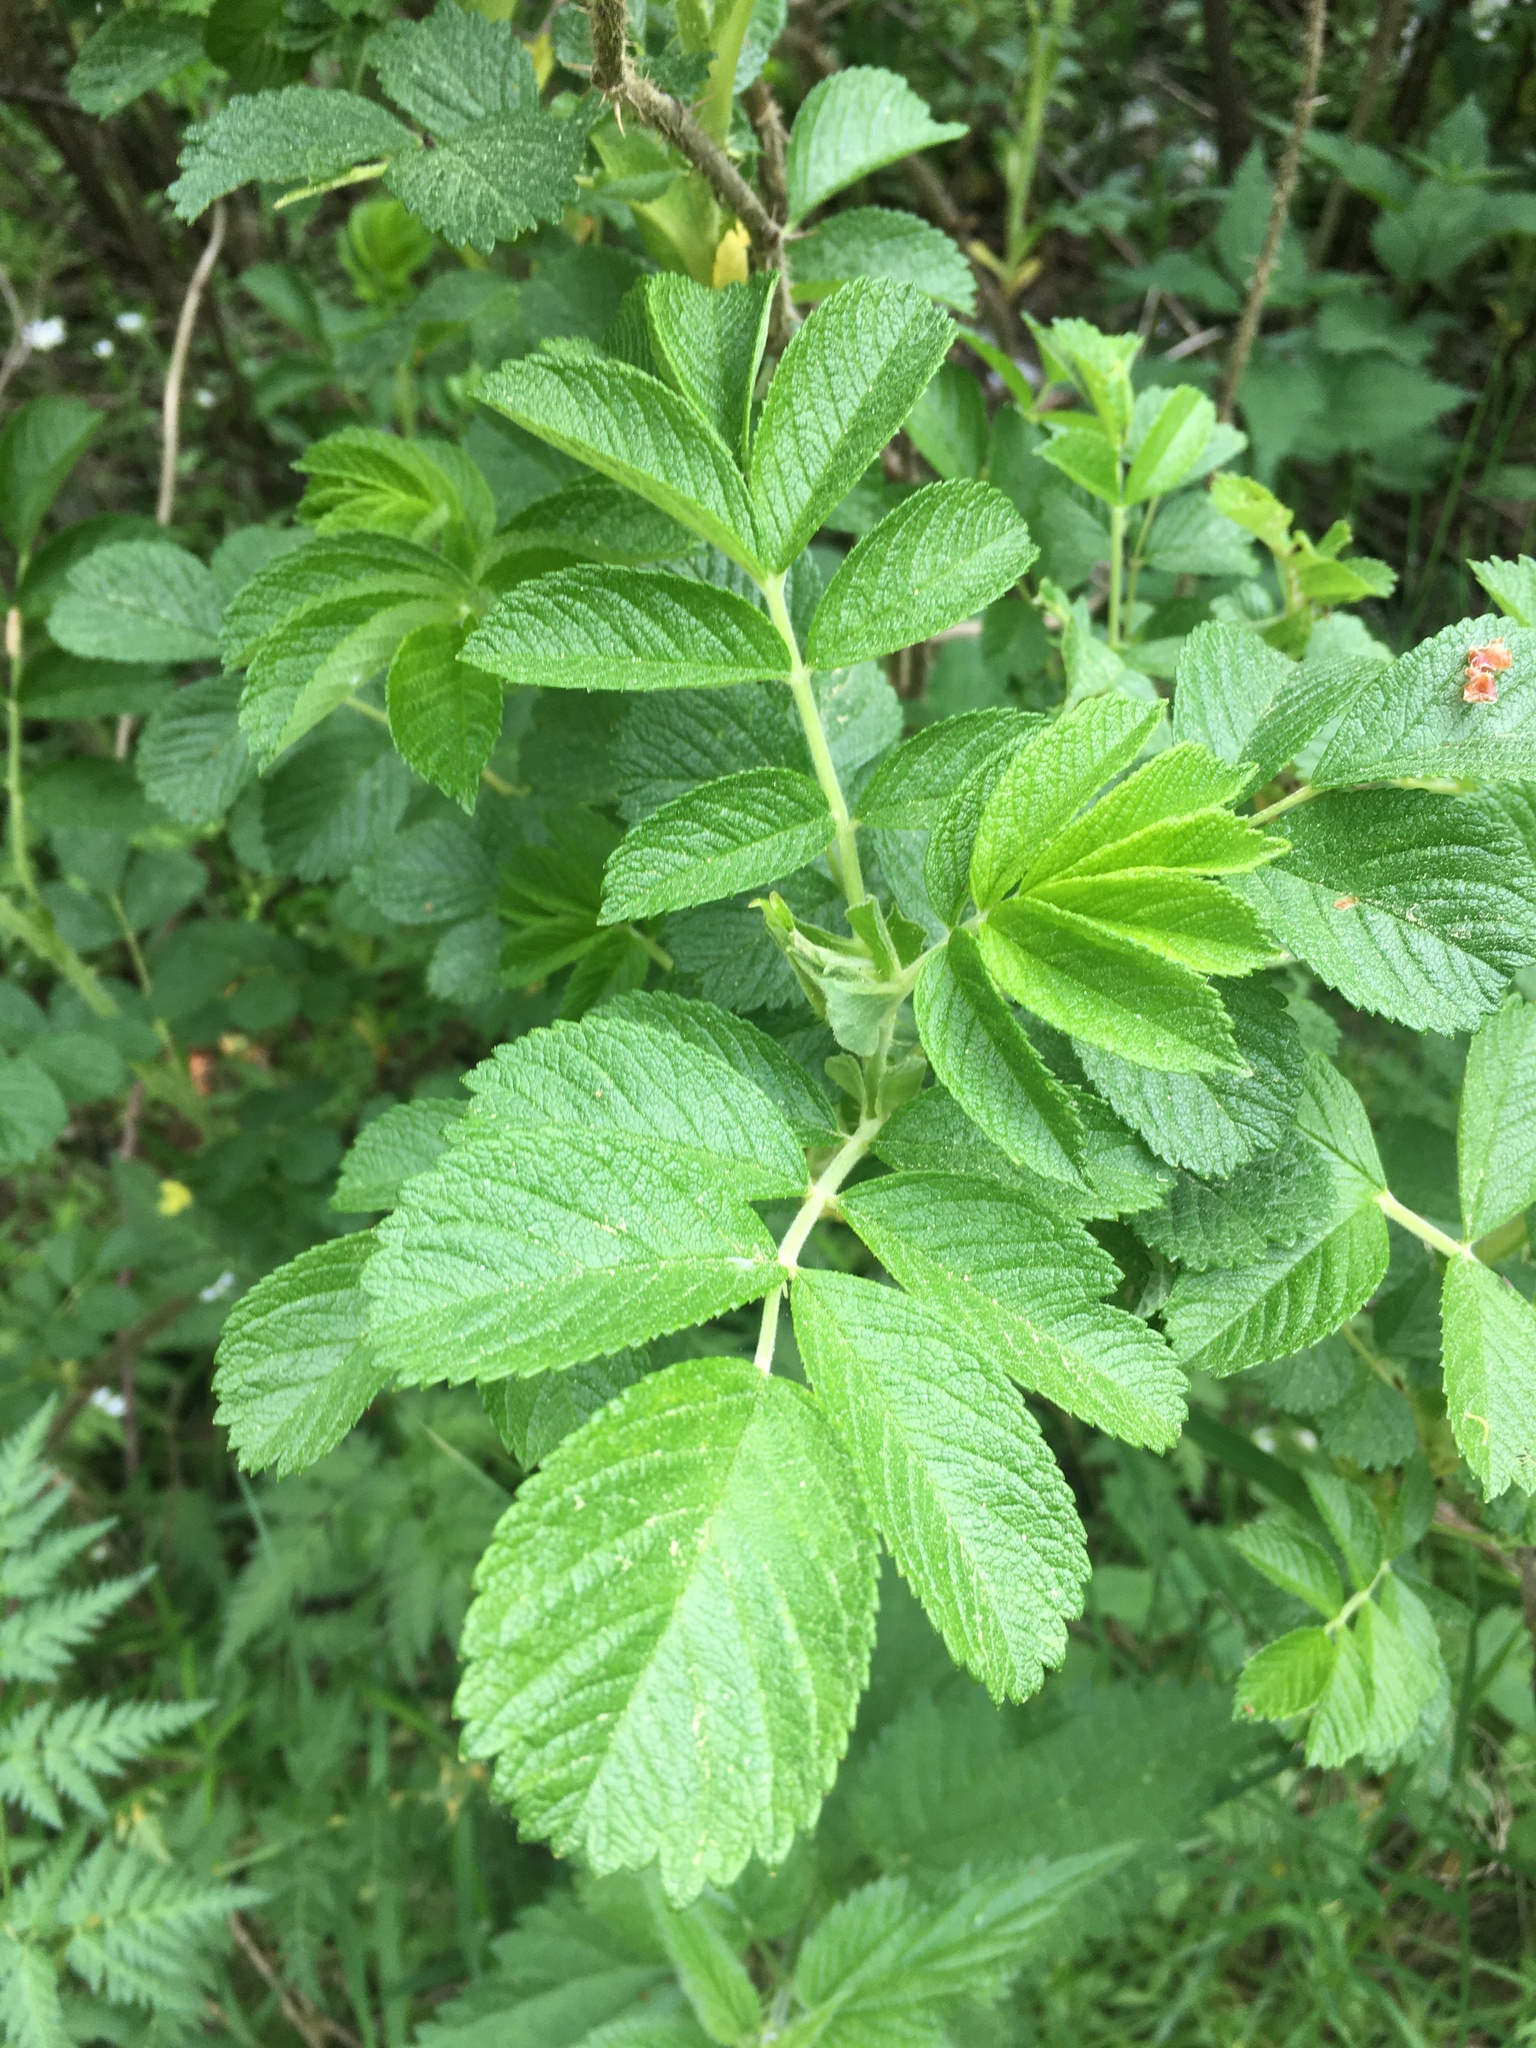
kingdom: Plantae
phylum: Tracheophyta
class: Magnoliopsida
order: Rosales
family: Rosaceae
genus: Rosa
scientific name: Rosa rugosa
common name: Japanese rose
